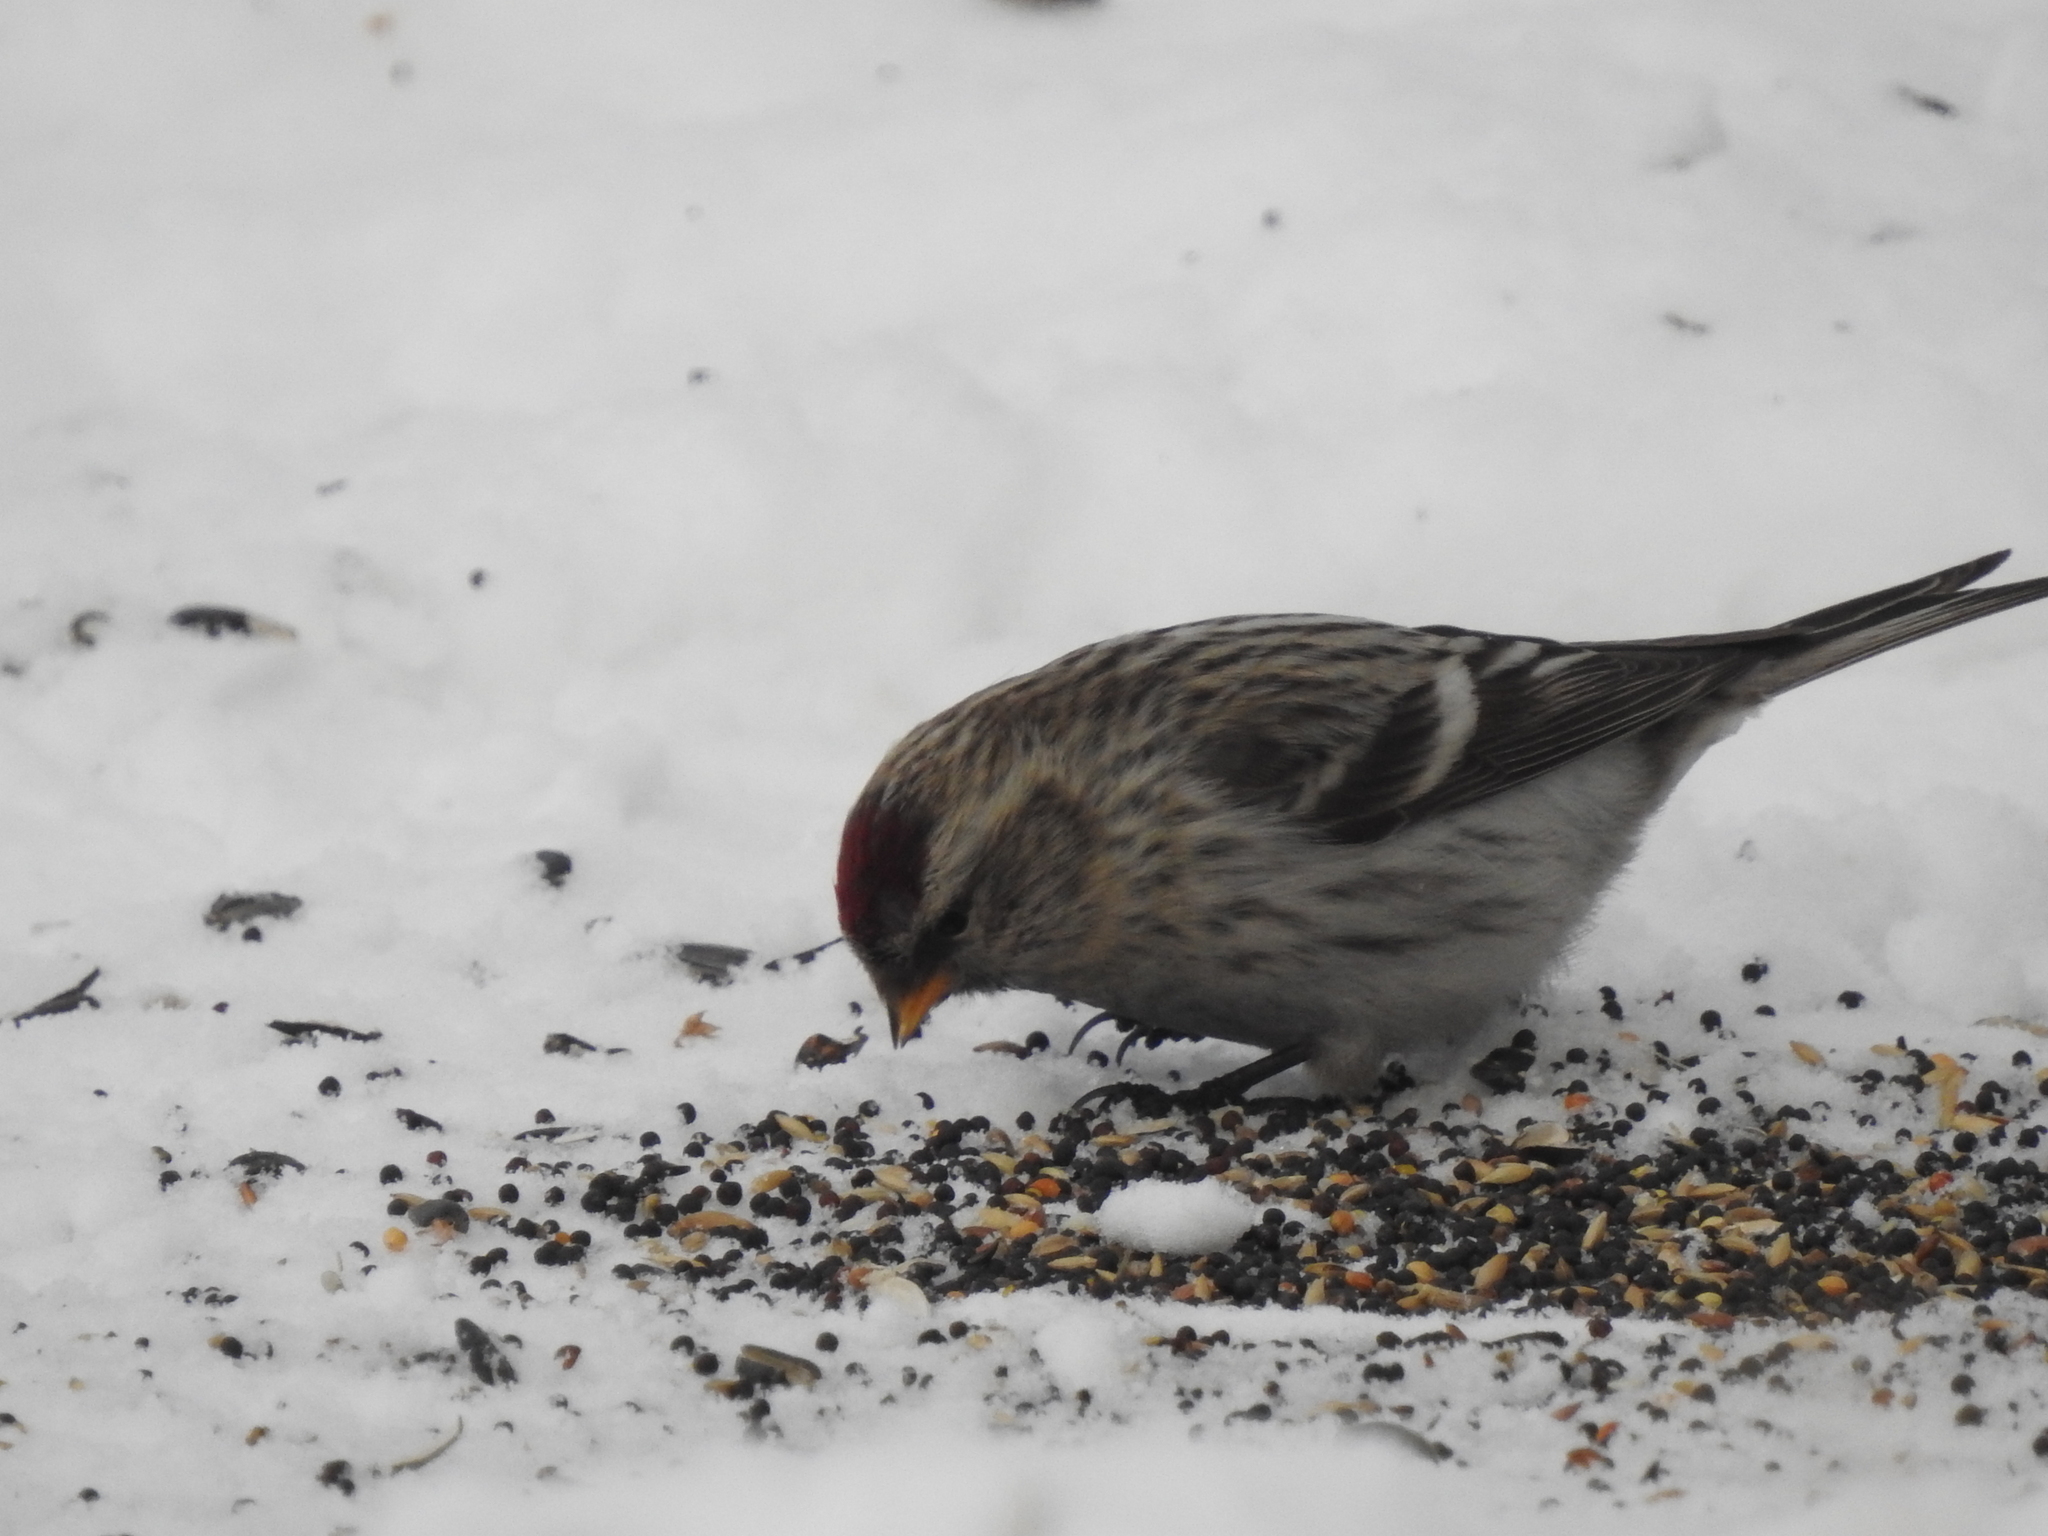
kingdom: Animalia
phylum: Chordata
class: Aves
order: Passeriformes
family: Fringillidae
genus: Acanthis
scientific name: Acanthis flammea
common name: Common redpoll
